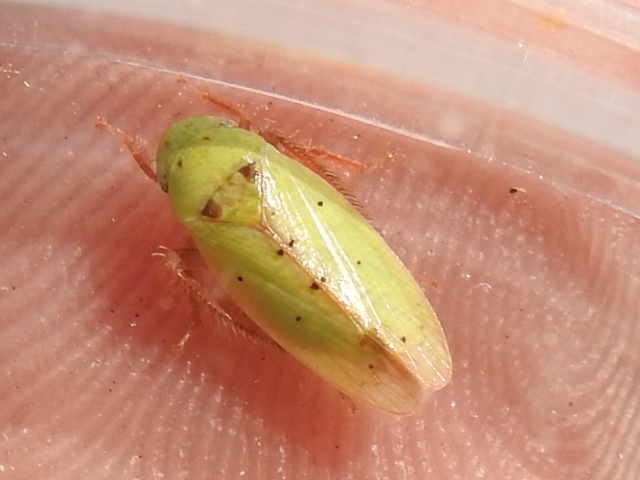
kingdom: Animalia
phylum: Arthropoda
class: Insecta
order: Hemiptera
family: Cicadellidae
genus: Ponana
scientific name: Ponana
